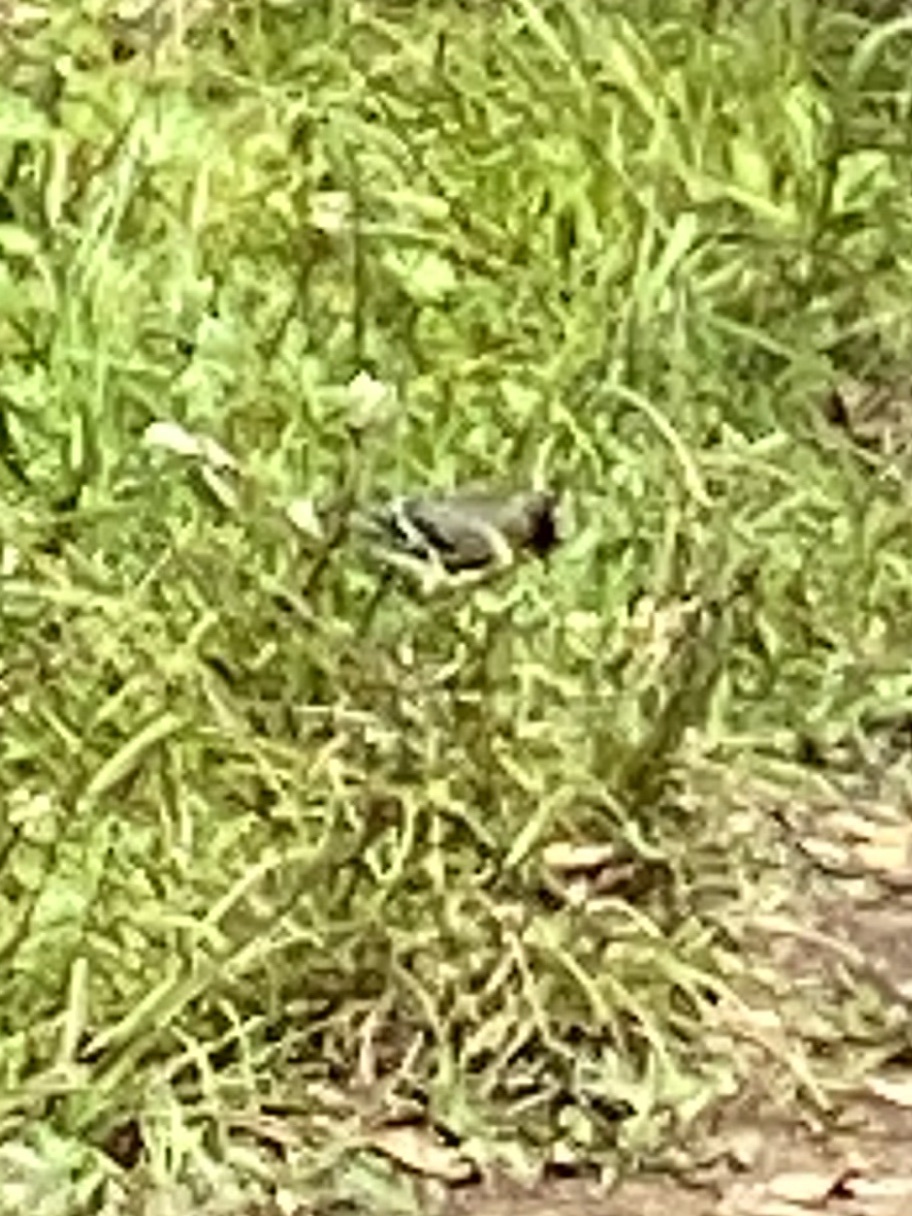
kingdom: Animalia
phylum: Chordata
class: Aves
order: Passeriformes
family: Fringillidae
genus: Spinus
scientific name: Spinus psaltria
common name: Lesser goldfinch
